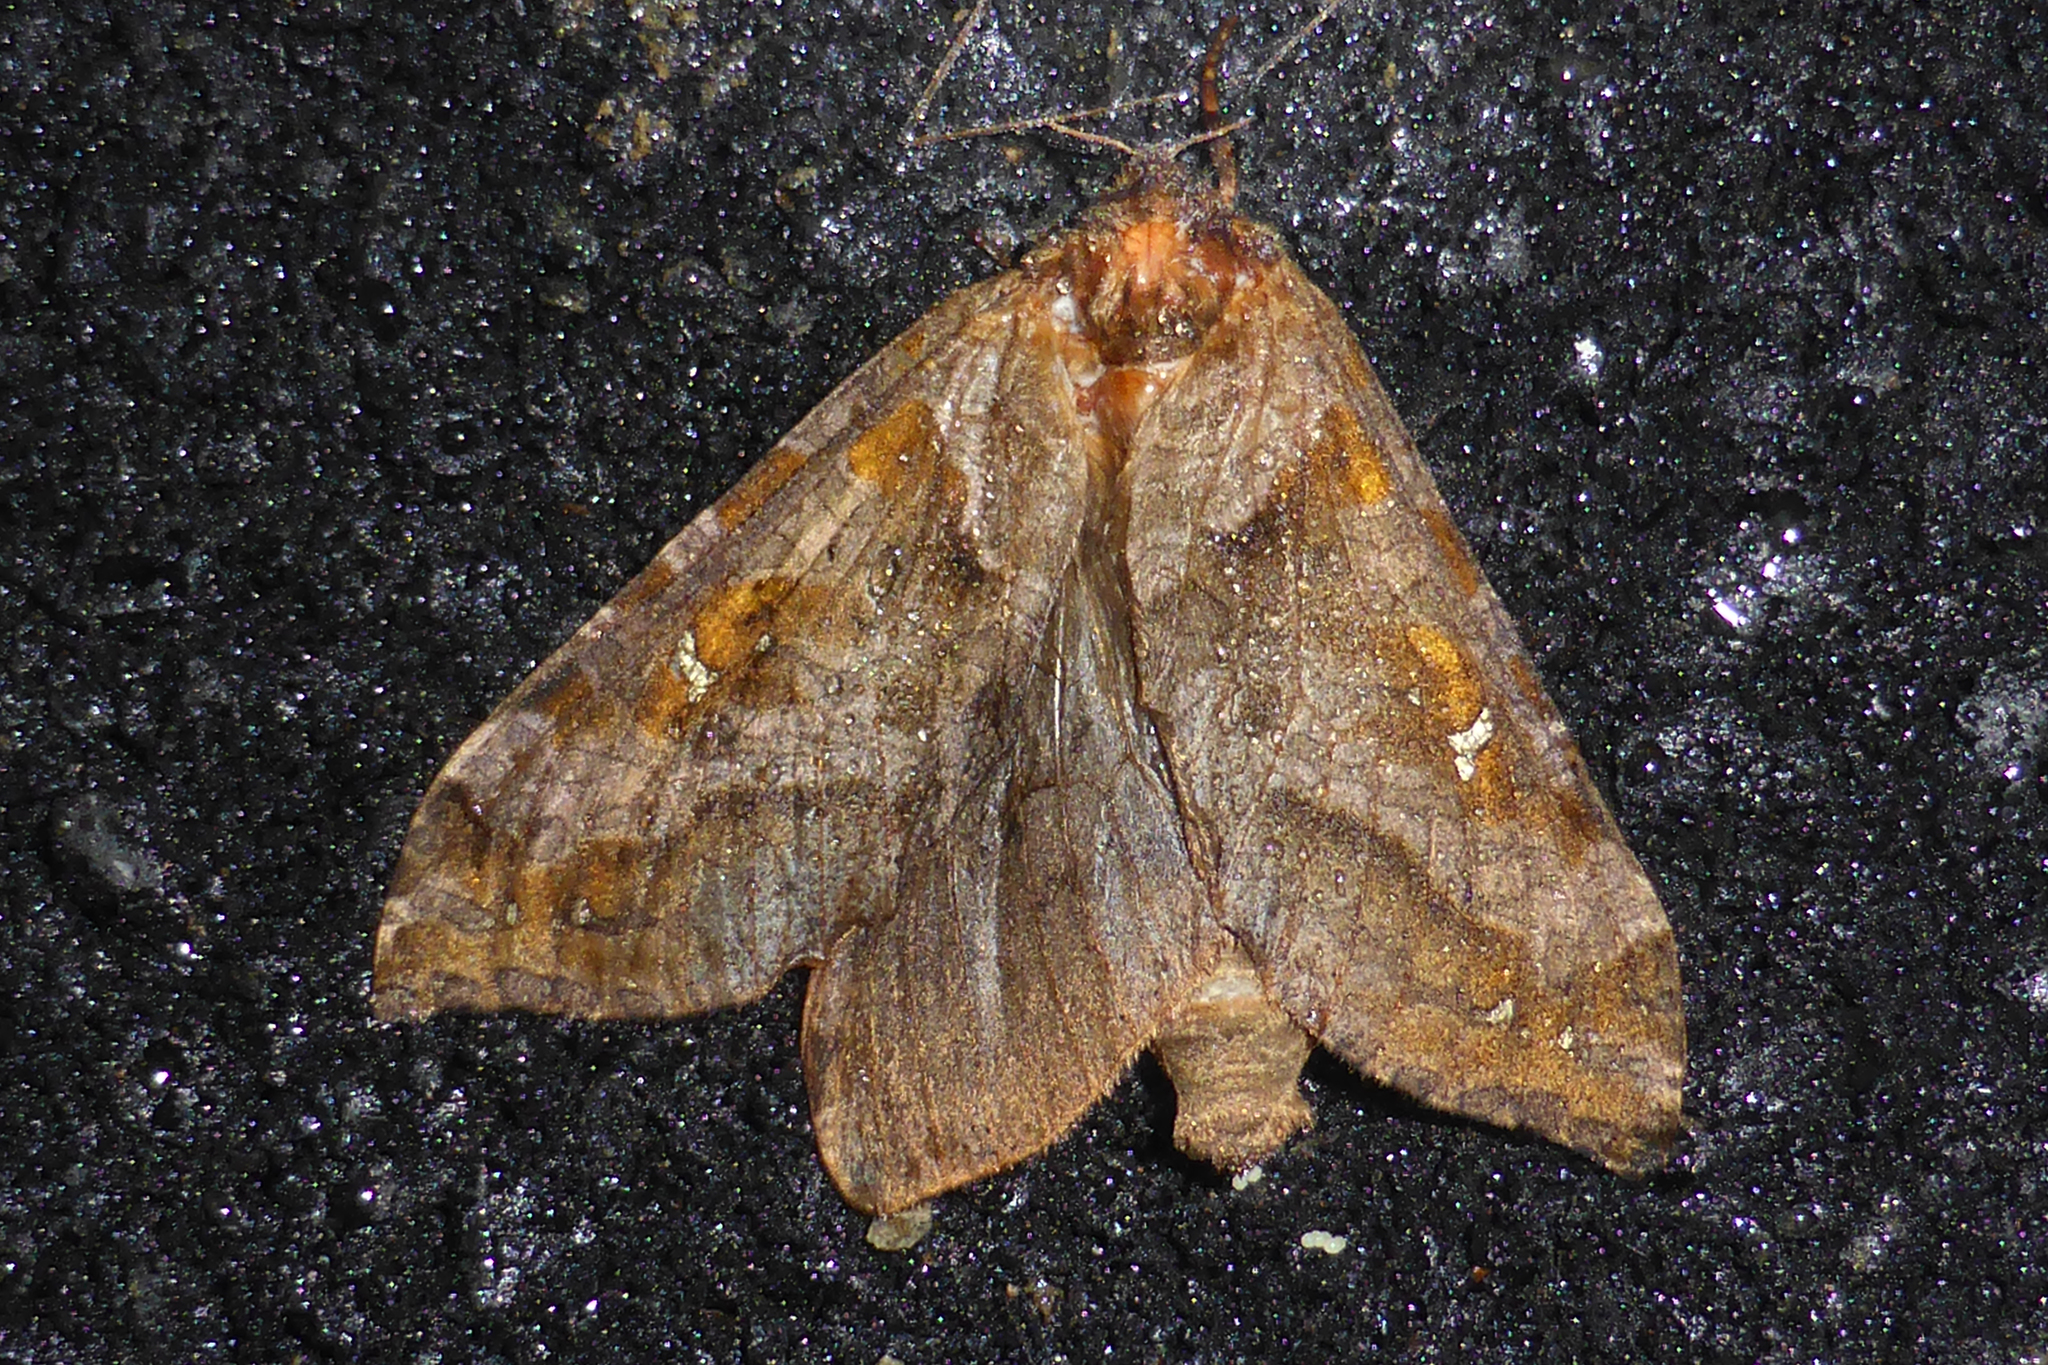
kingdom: Animalia
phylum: Arthropoda
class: Insecta
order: Lepidoptera
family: Hepialidae
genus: Zenophassus
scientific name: Zenophassus schamyl
